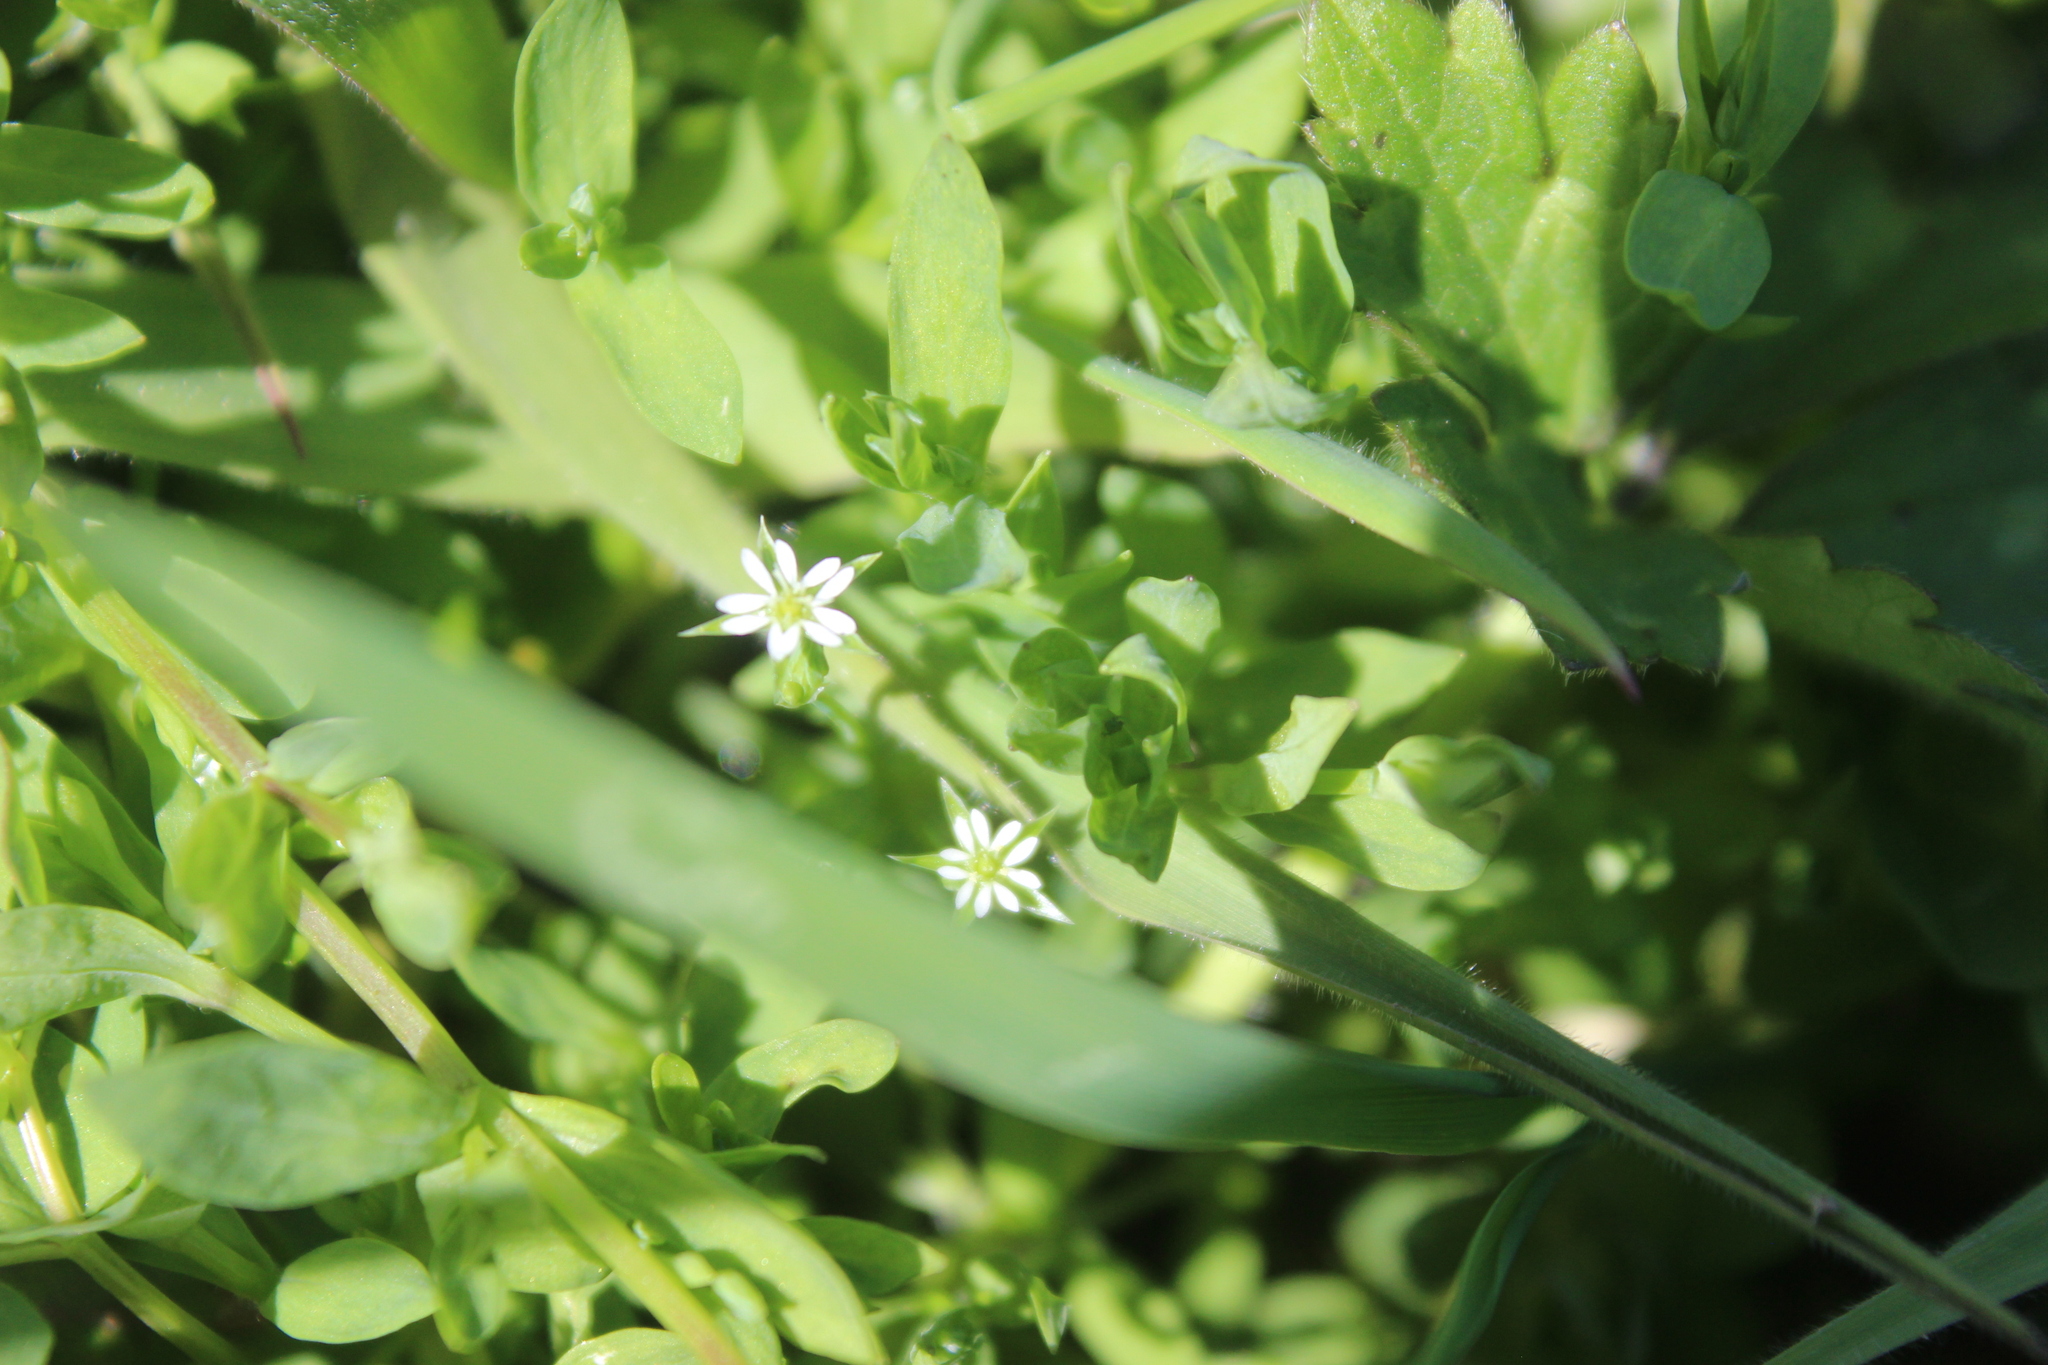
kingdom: Plantae
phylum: Tracheophyta
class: Magnoliopsida
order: Caryophyllales
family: Caryophyllaceae
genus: Stellaria
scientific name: Stellaria graminea
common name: Grass-like starwort
